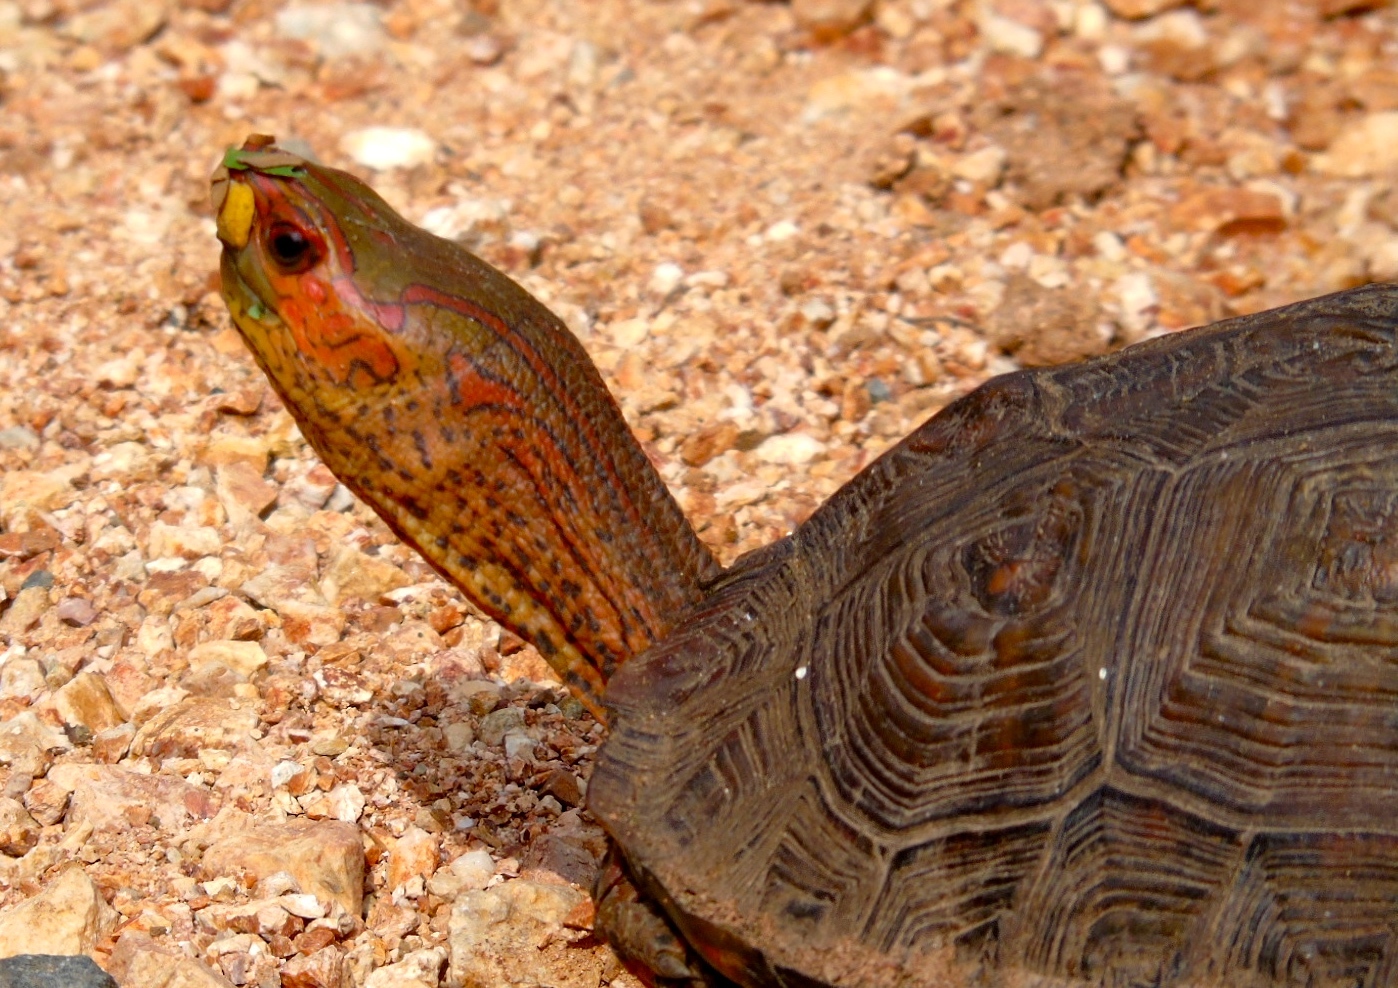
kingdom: Animalia
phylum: Chordata
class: Testudines
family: Geoemydidae
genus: Rhinoclemmys
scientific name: Rhinoclemmys pulcherrima
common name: Painted wood turtle
